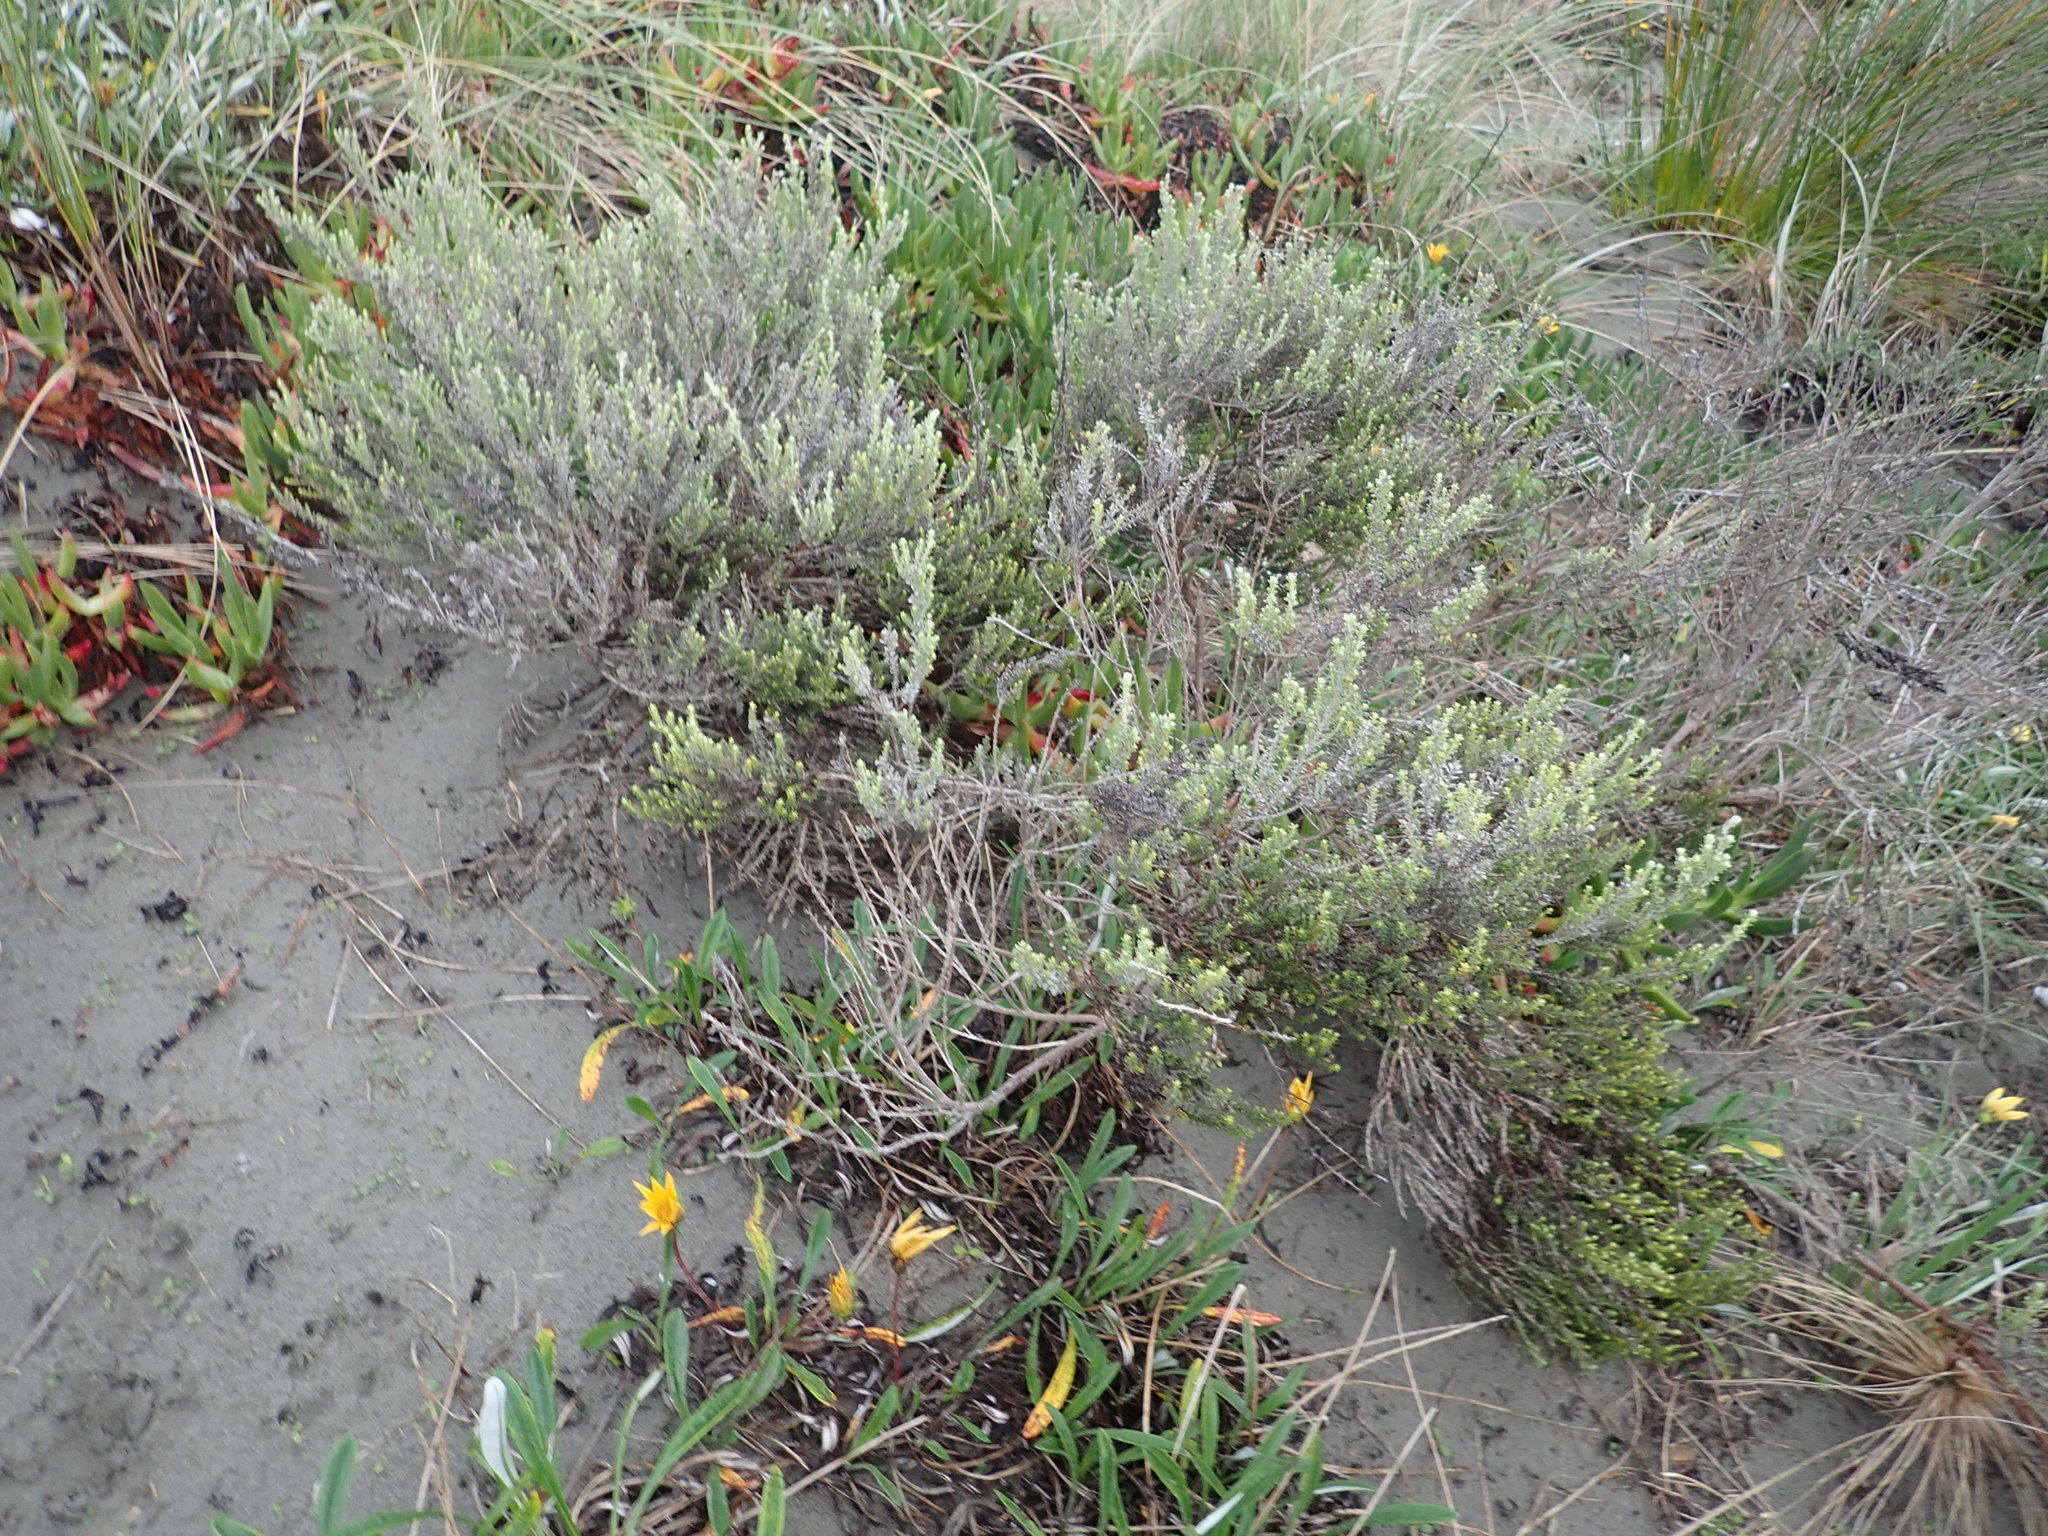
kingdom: Plantae
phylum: Tracheophyta
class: Magnoliopsida
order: Asterales
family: Asteraceae
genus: Ozothamnus
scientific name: Ozothamnus leptophyllus
